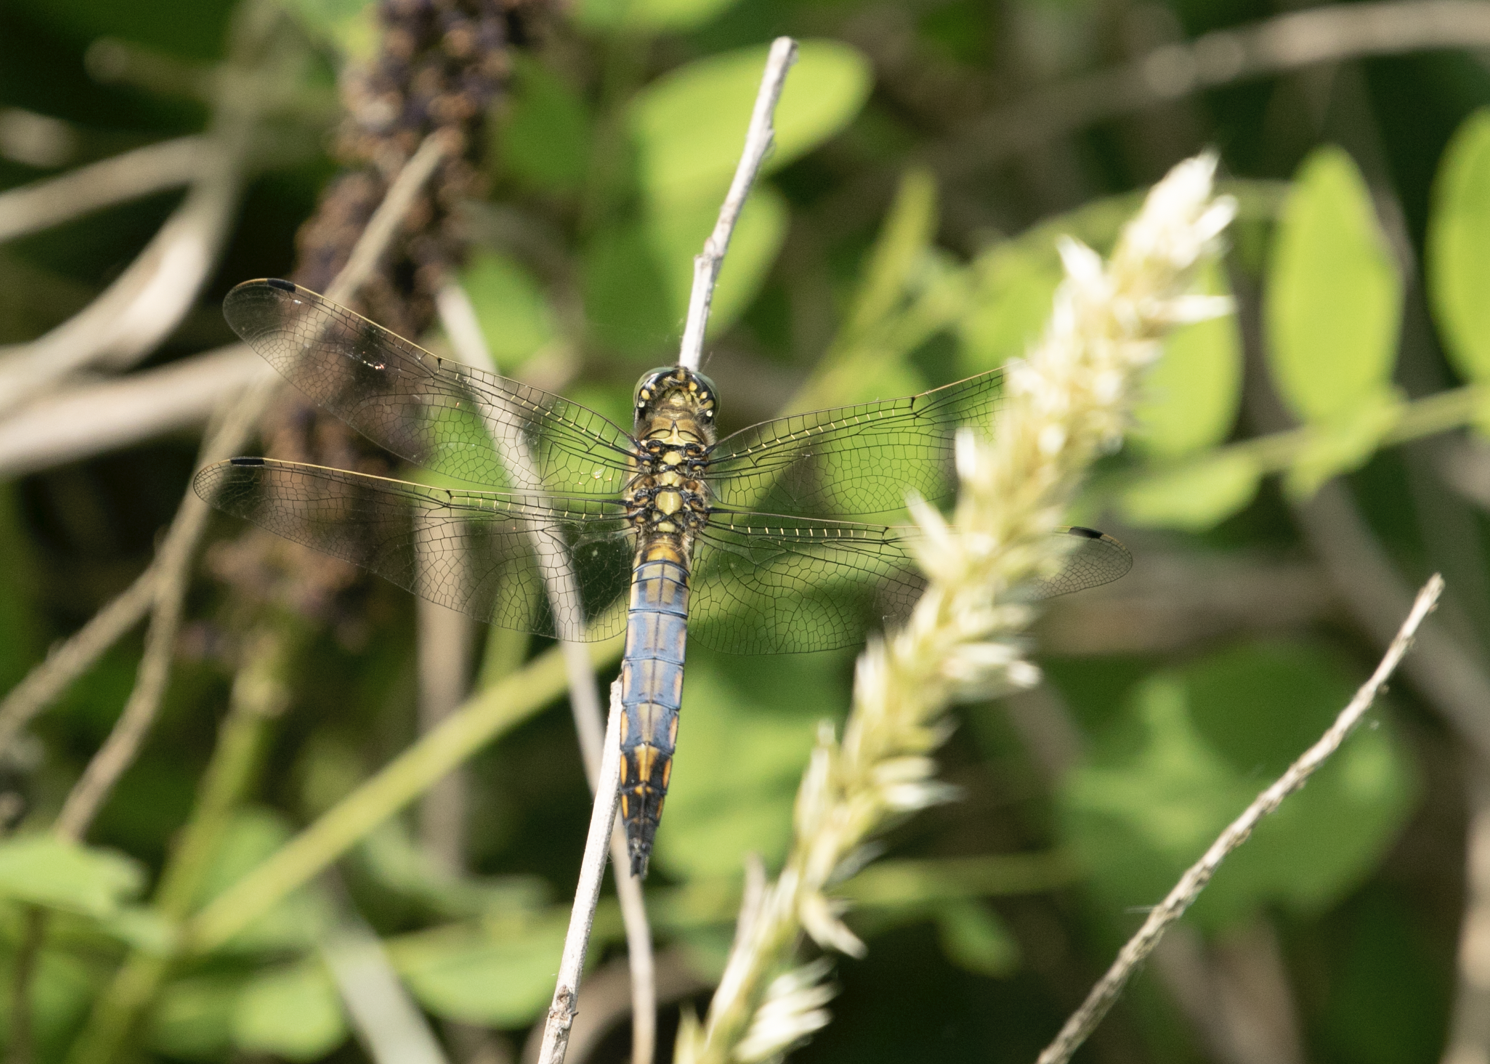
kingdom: Animalia
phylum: Arthropoda
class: Insecta
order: Odonata
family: Libellulidae
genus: Orthetrum
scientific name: Orthetrum cancellatum
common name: Black-tailed skimmer
